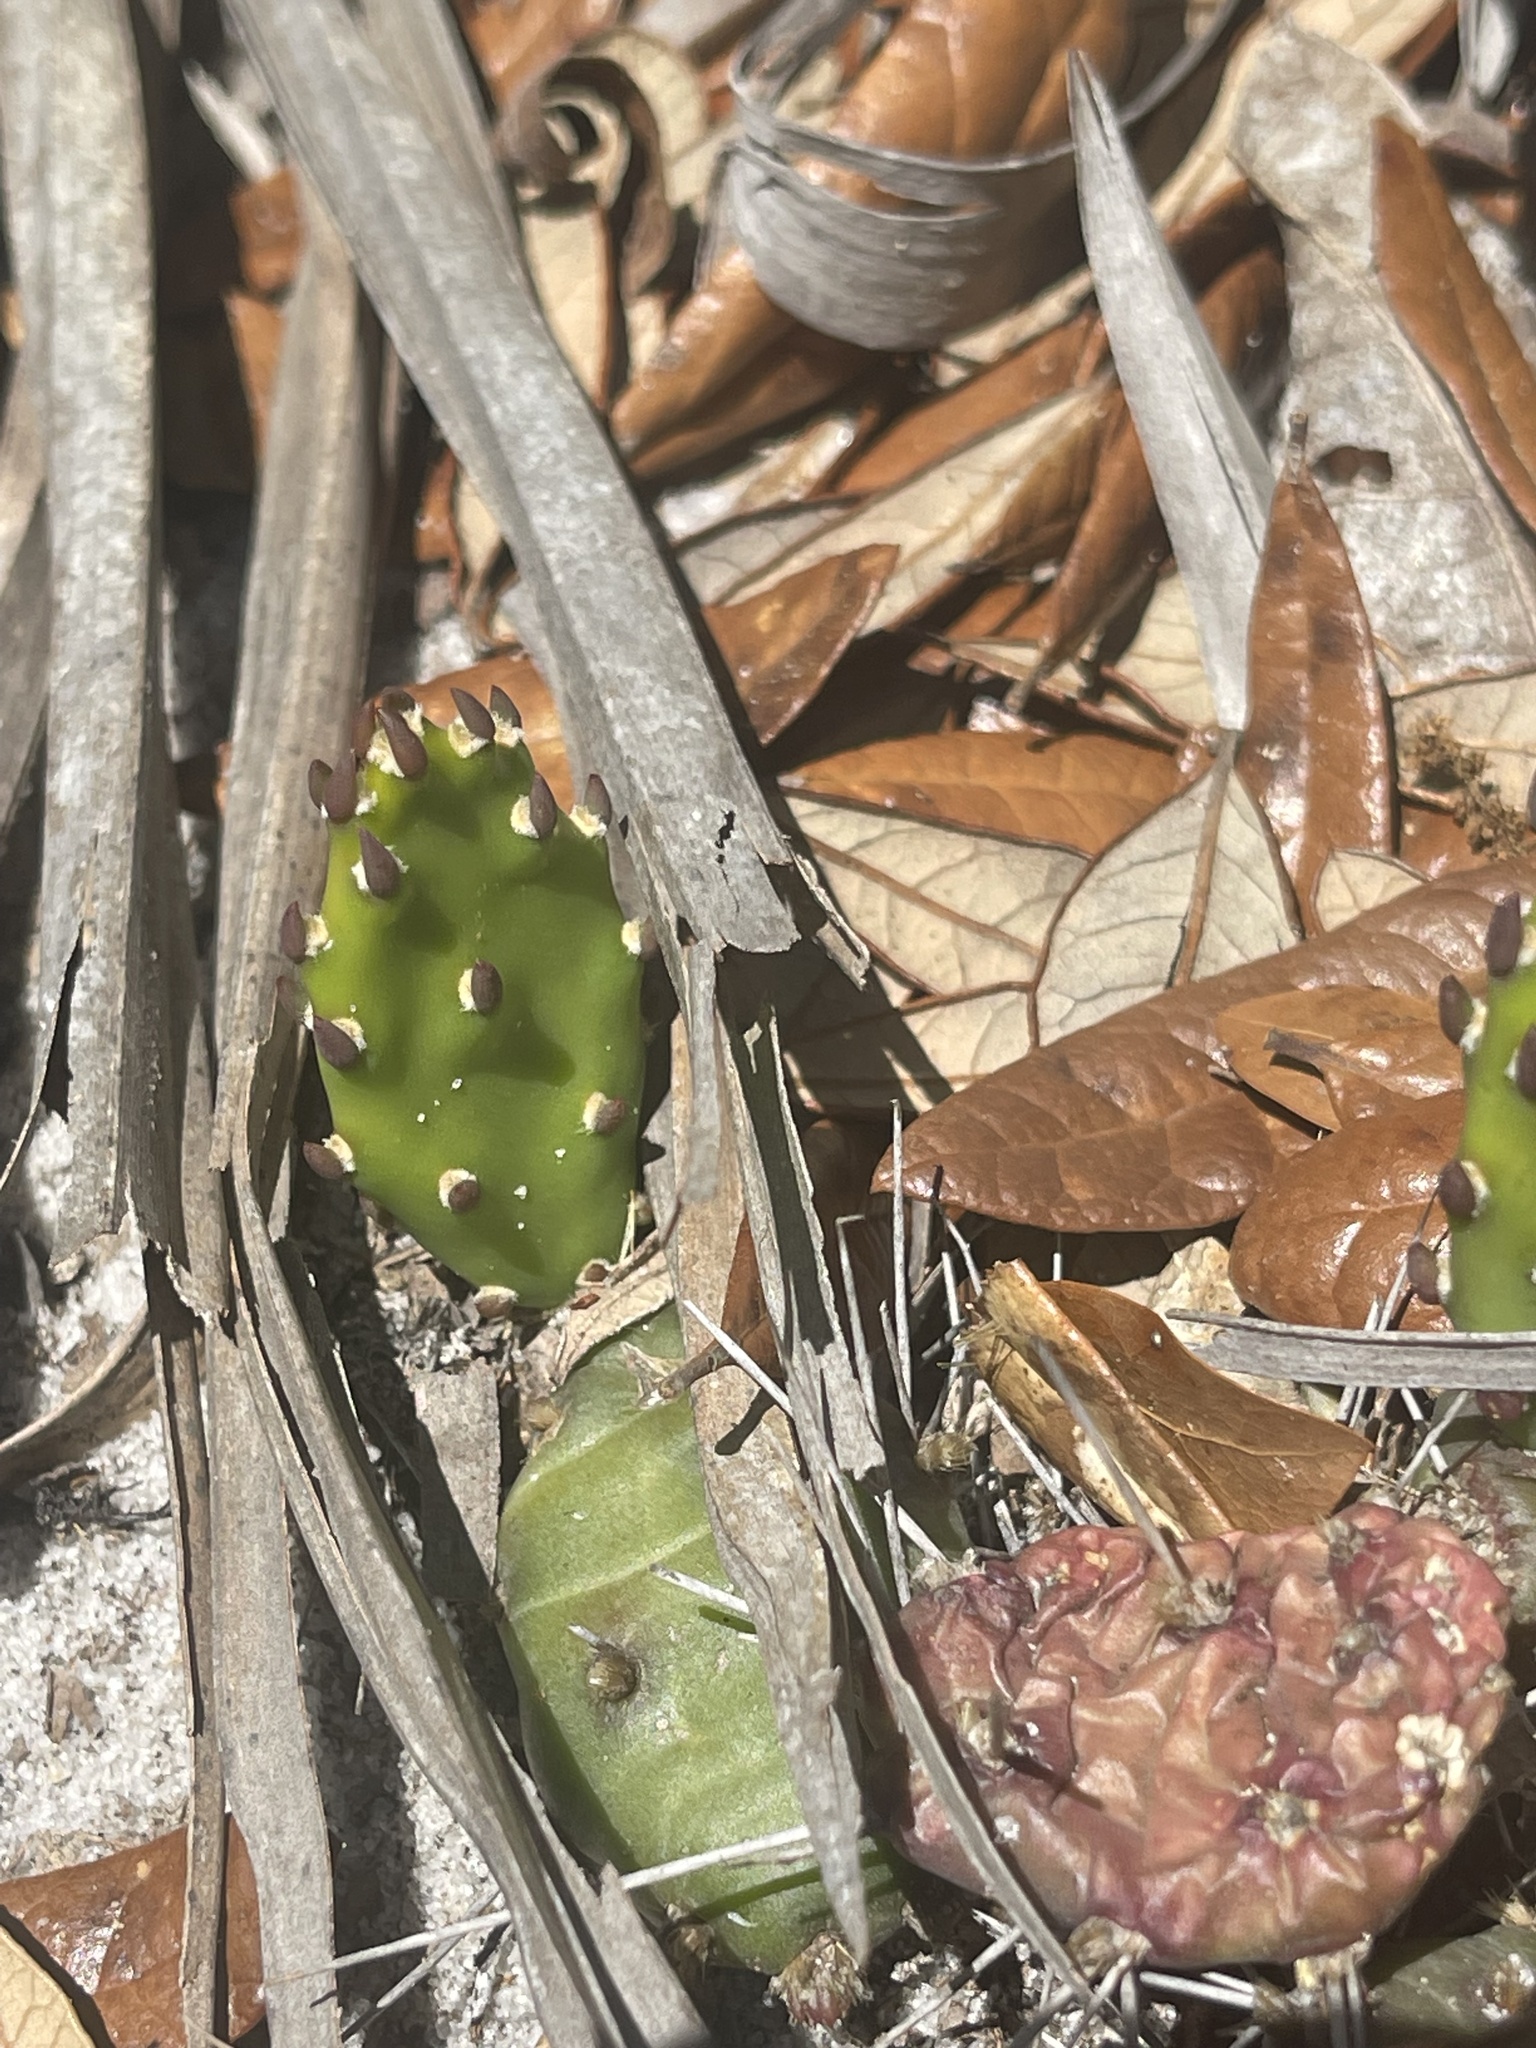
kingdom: Plantae
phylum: Tracheophyta
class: Magnoliopsida
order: Caryophyllales
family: Cactaceae
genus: Opuntia
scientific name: Opuntia drummondii
